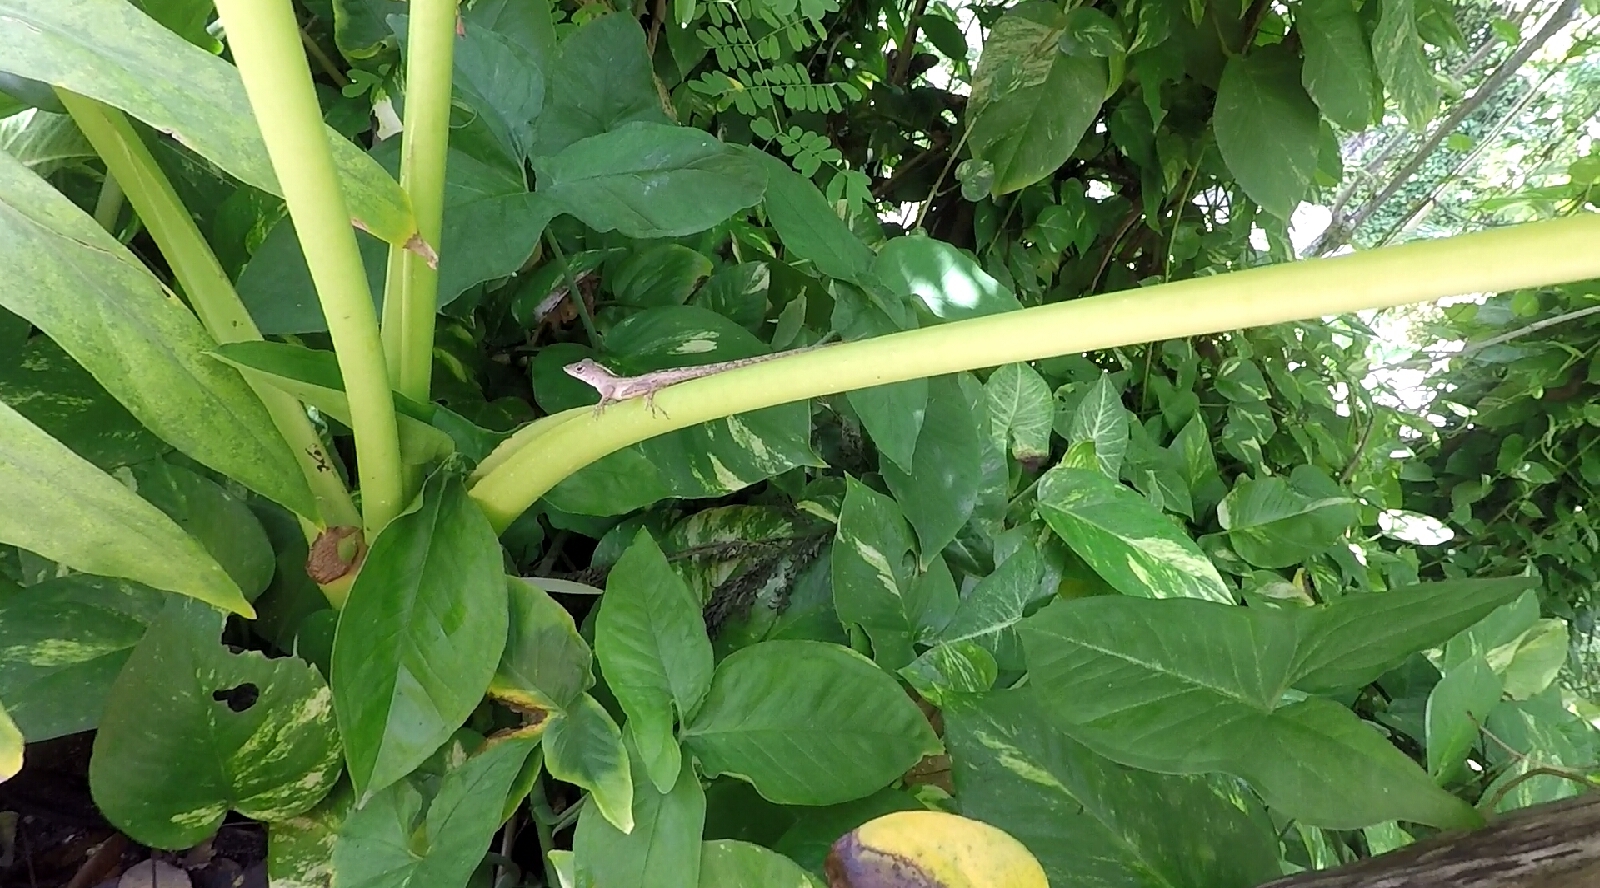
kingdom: Animalia
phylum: Chordata
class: Squamata
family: Dactyloidae
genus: Anolis
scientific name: Anolis sagrei
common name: Brown anole
